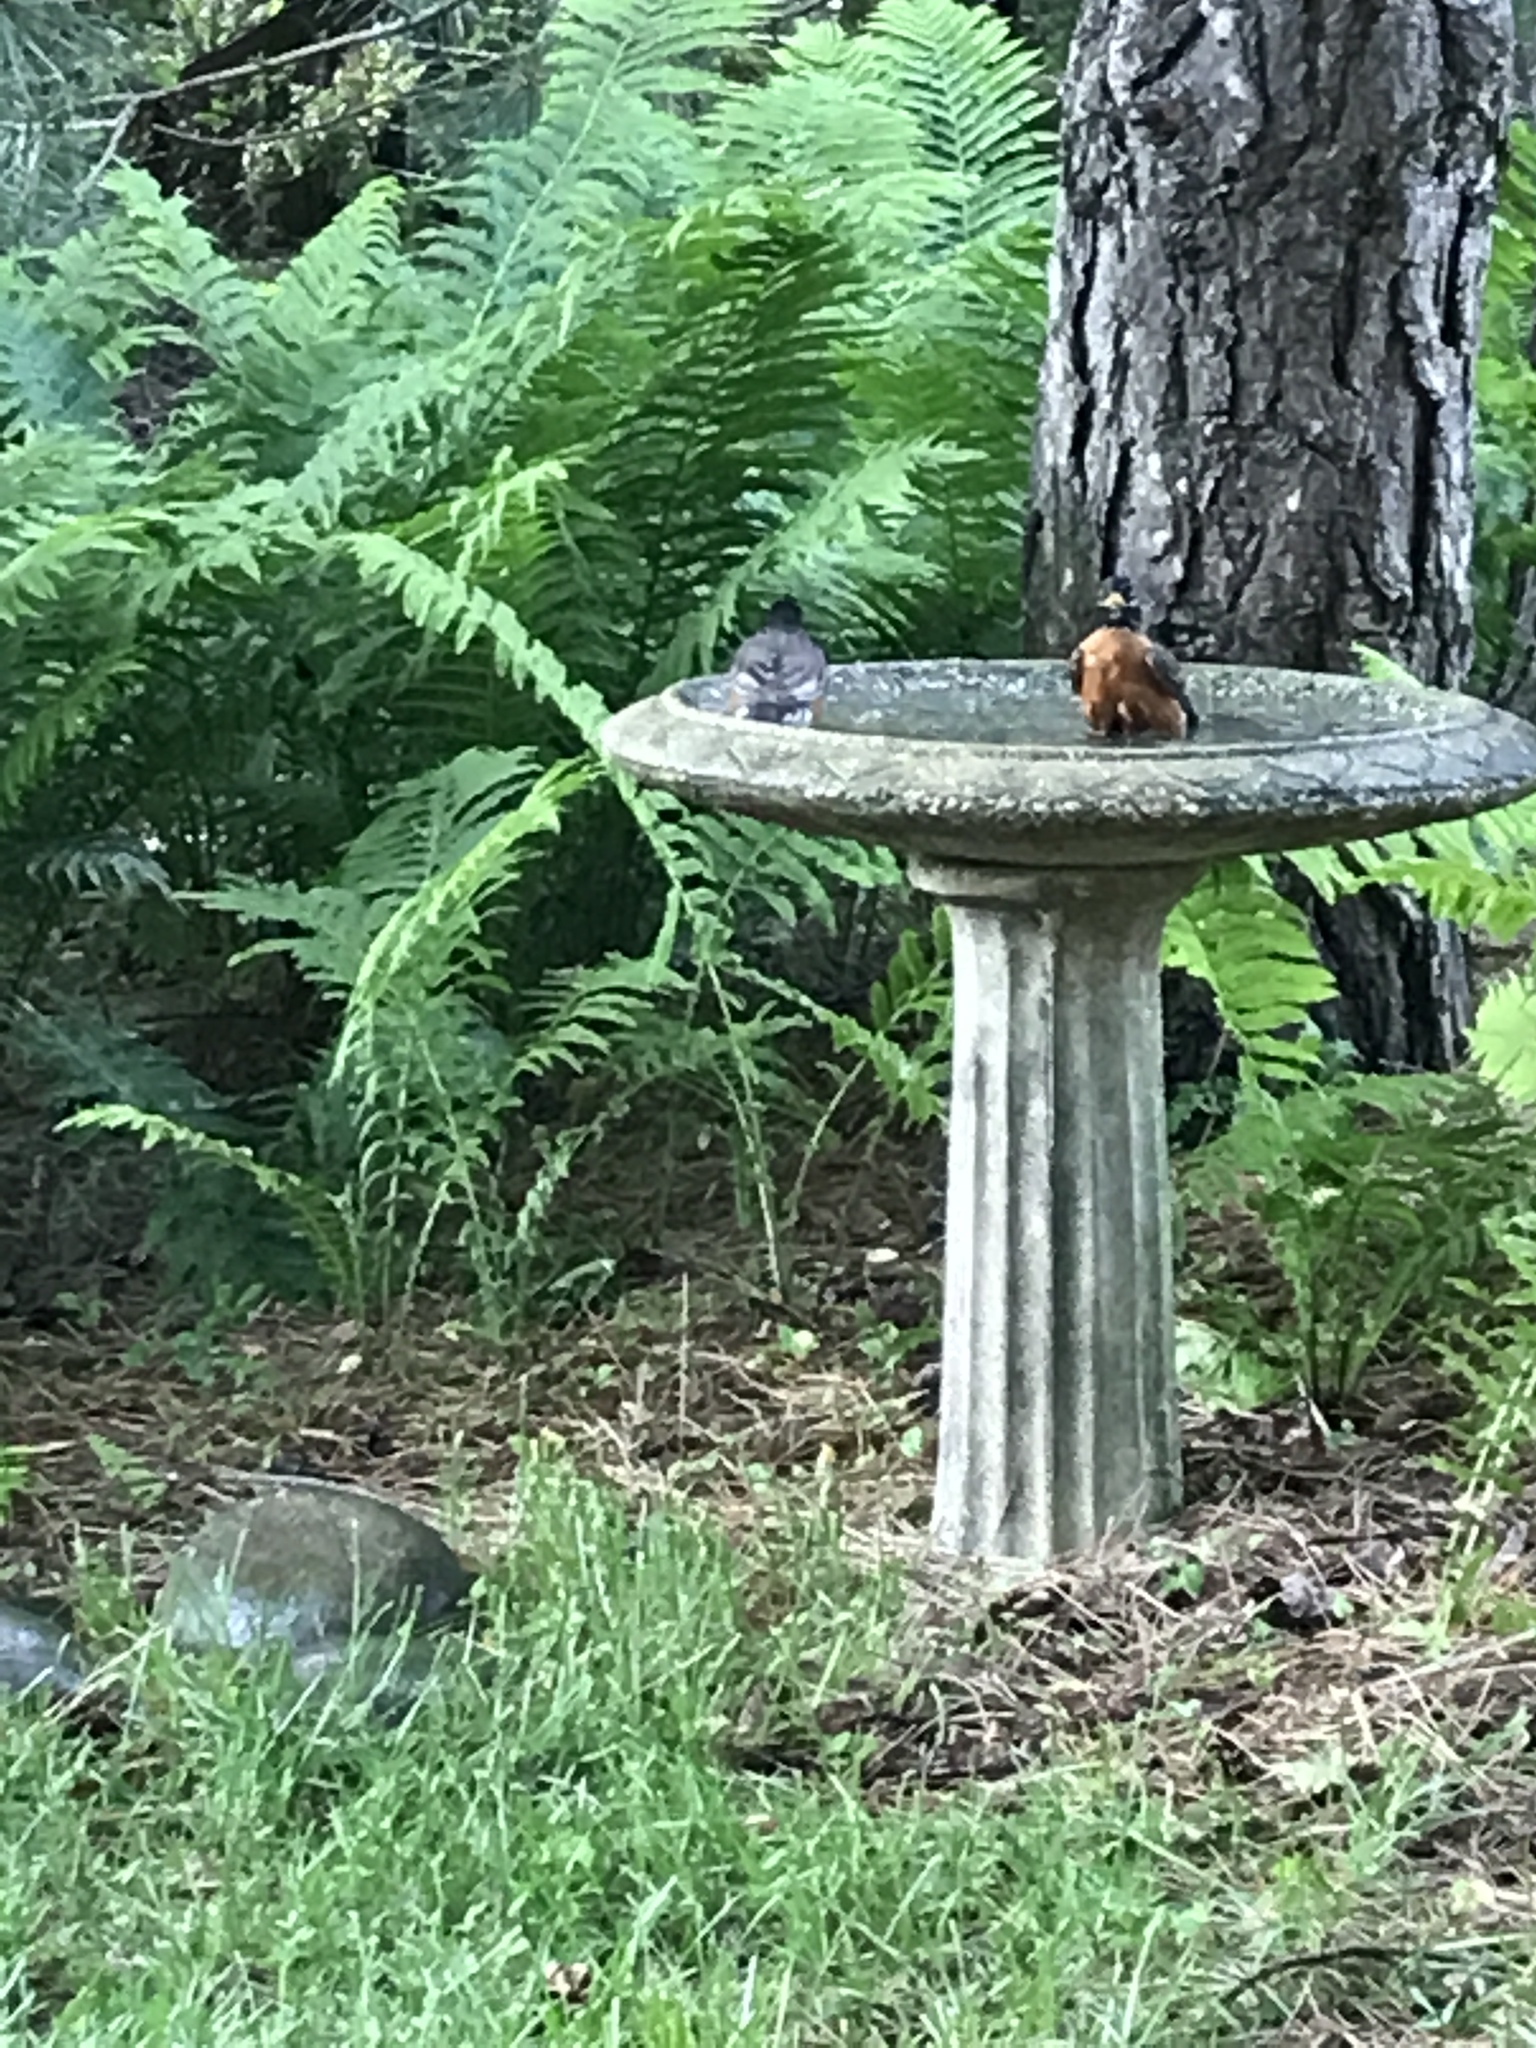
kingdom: Animalia
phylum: Chordata
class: Aves
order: Passeriformes
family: Turdidae
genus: Turdus
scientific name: Turdus migratorius
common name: American robin
